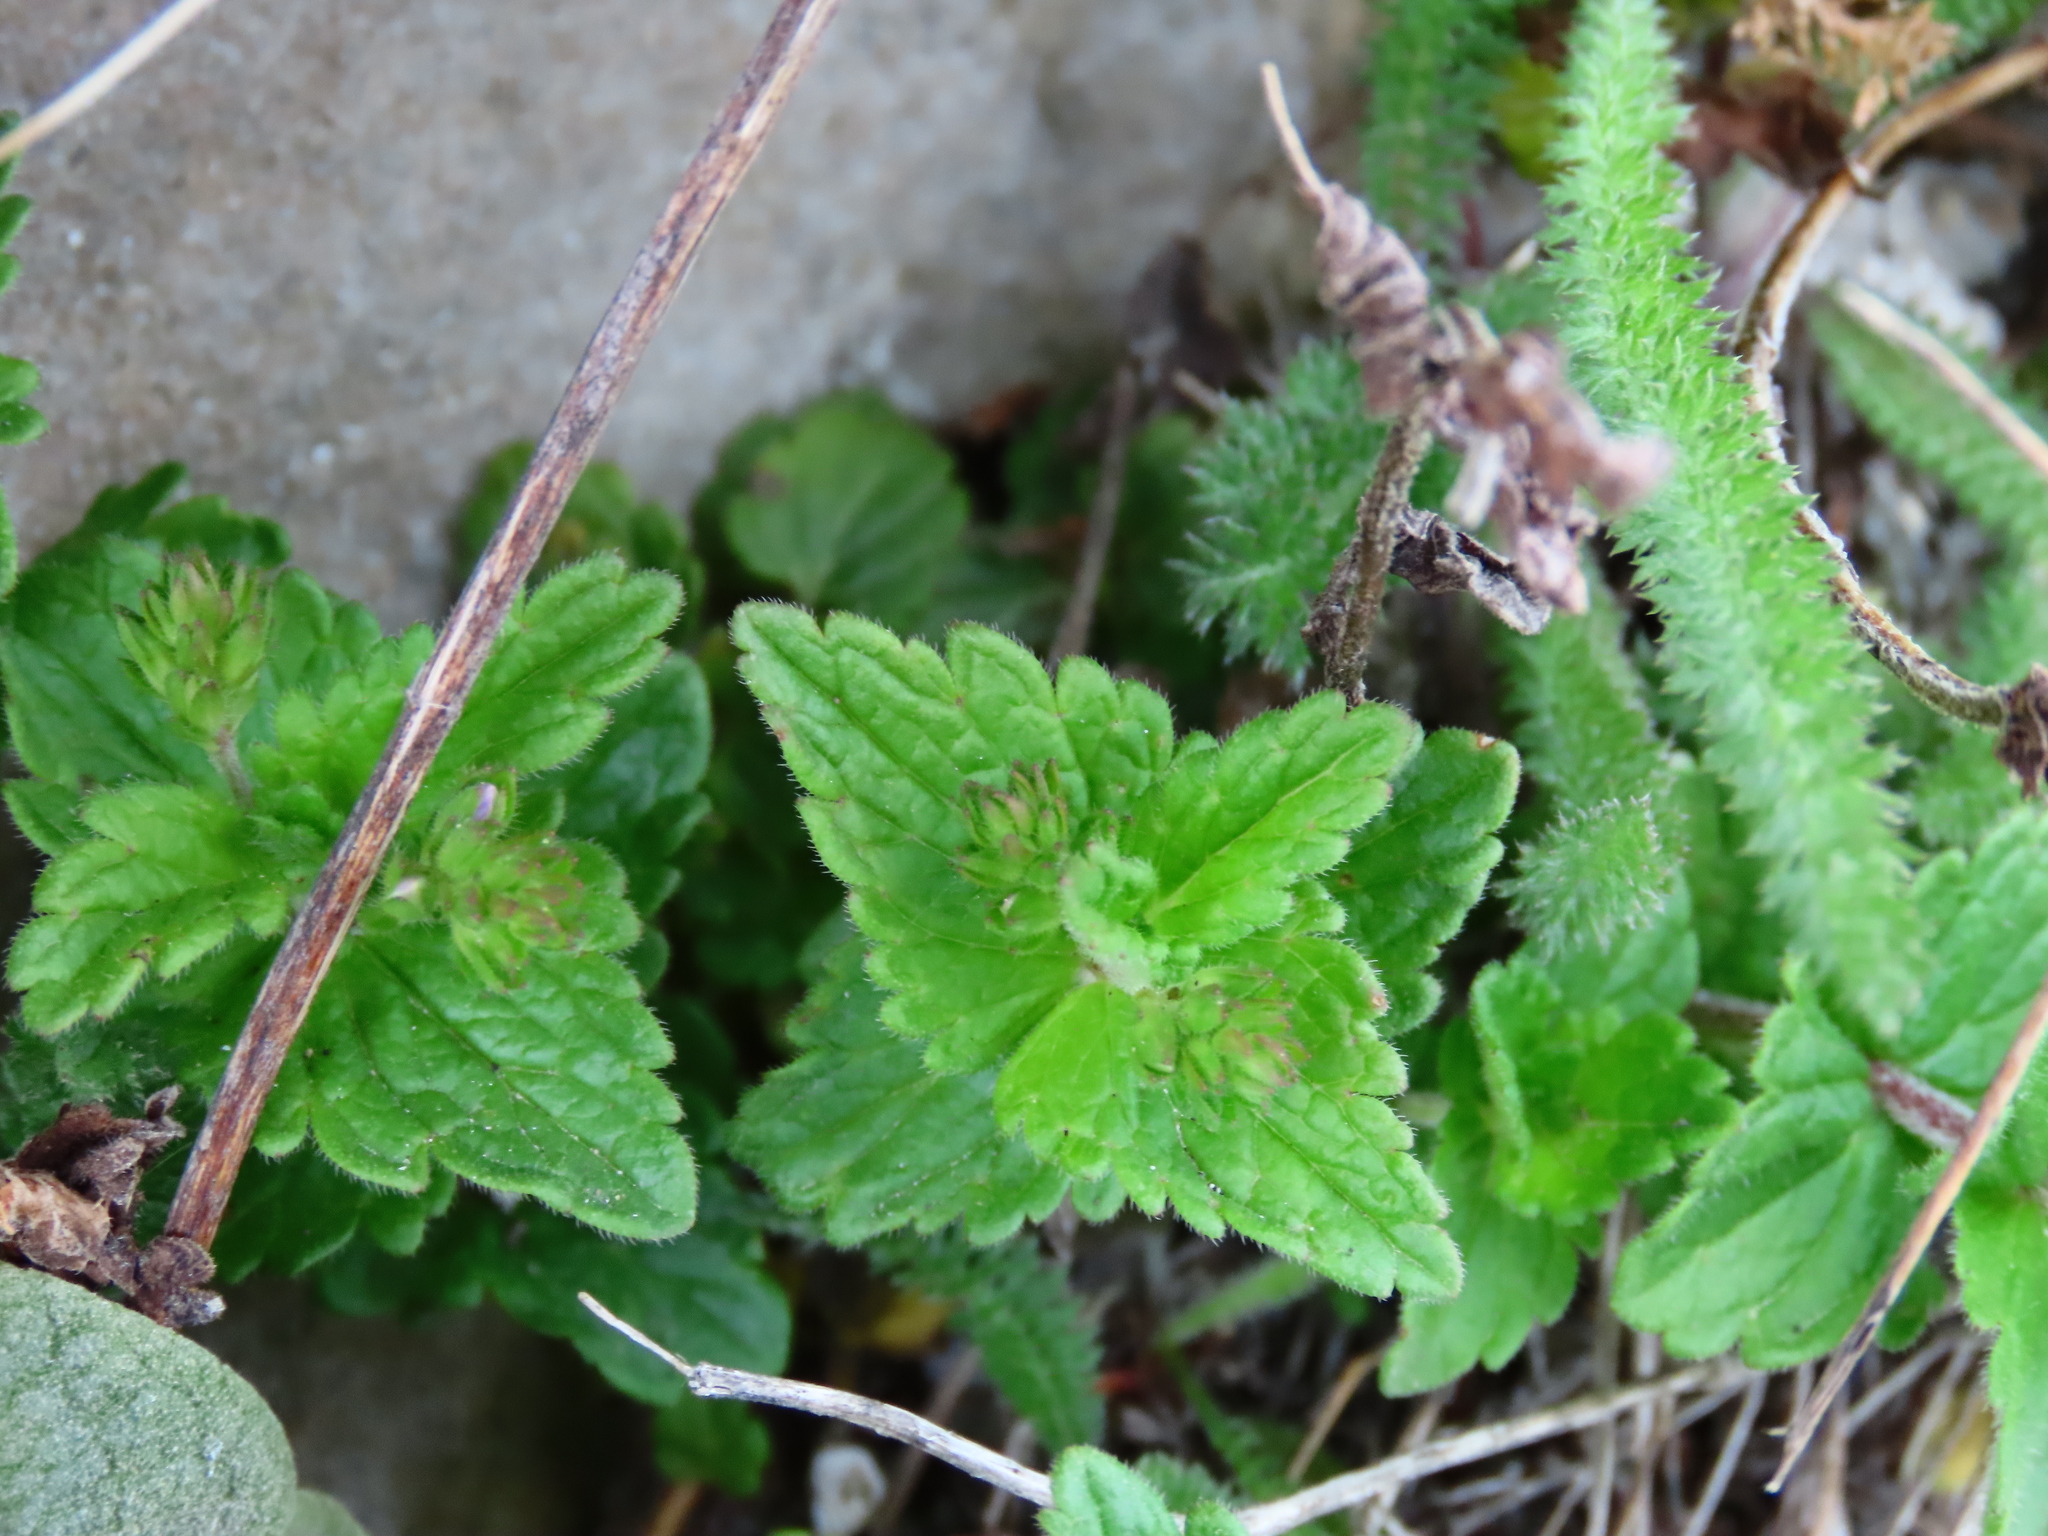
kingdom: Plantae
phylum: Tracheophyta
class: Magnoliopsida
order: Lamiales
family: Plantaginaceae
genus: Veronica
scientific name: Veronica chamaedrys
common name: Germander speedwell
